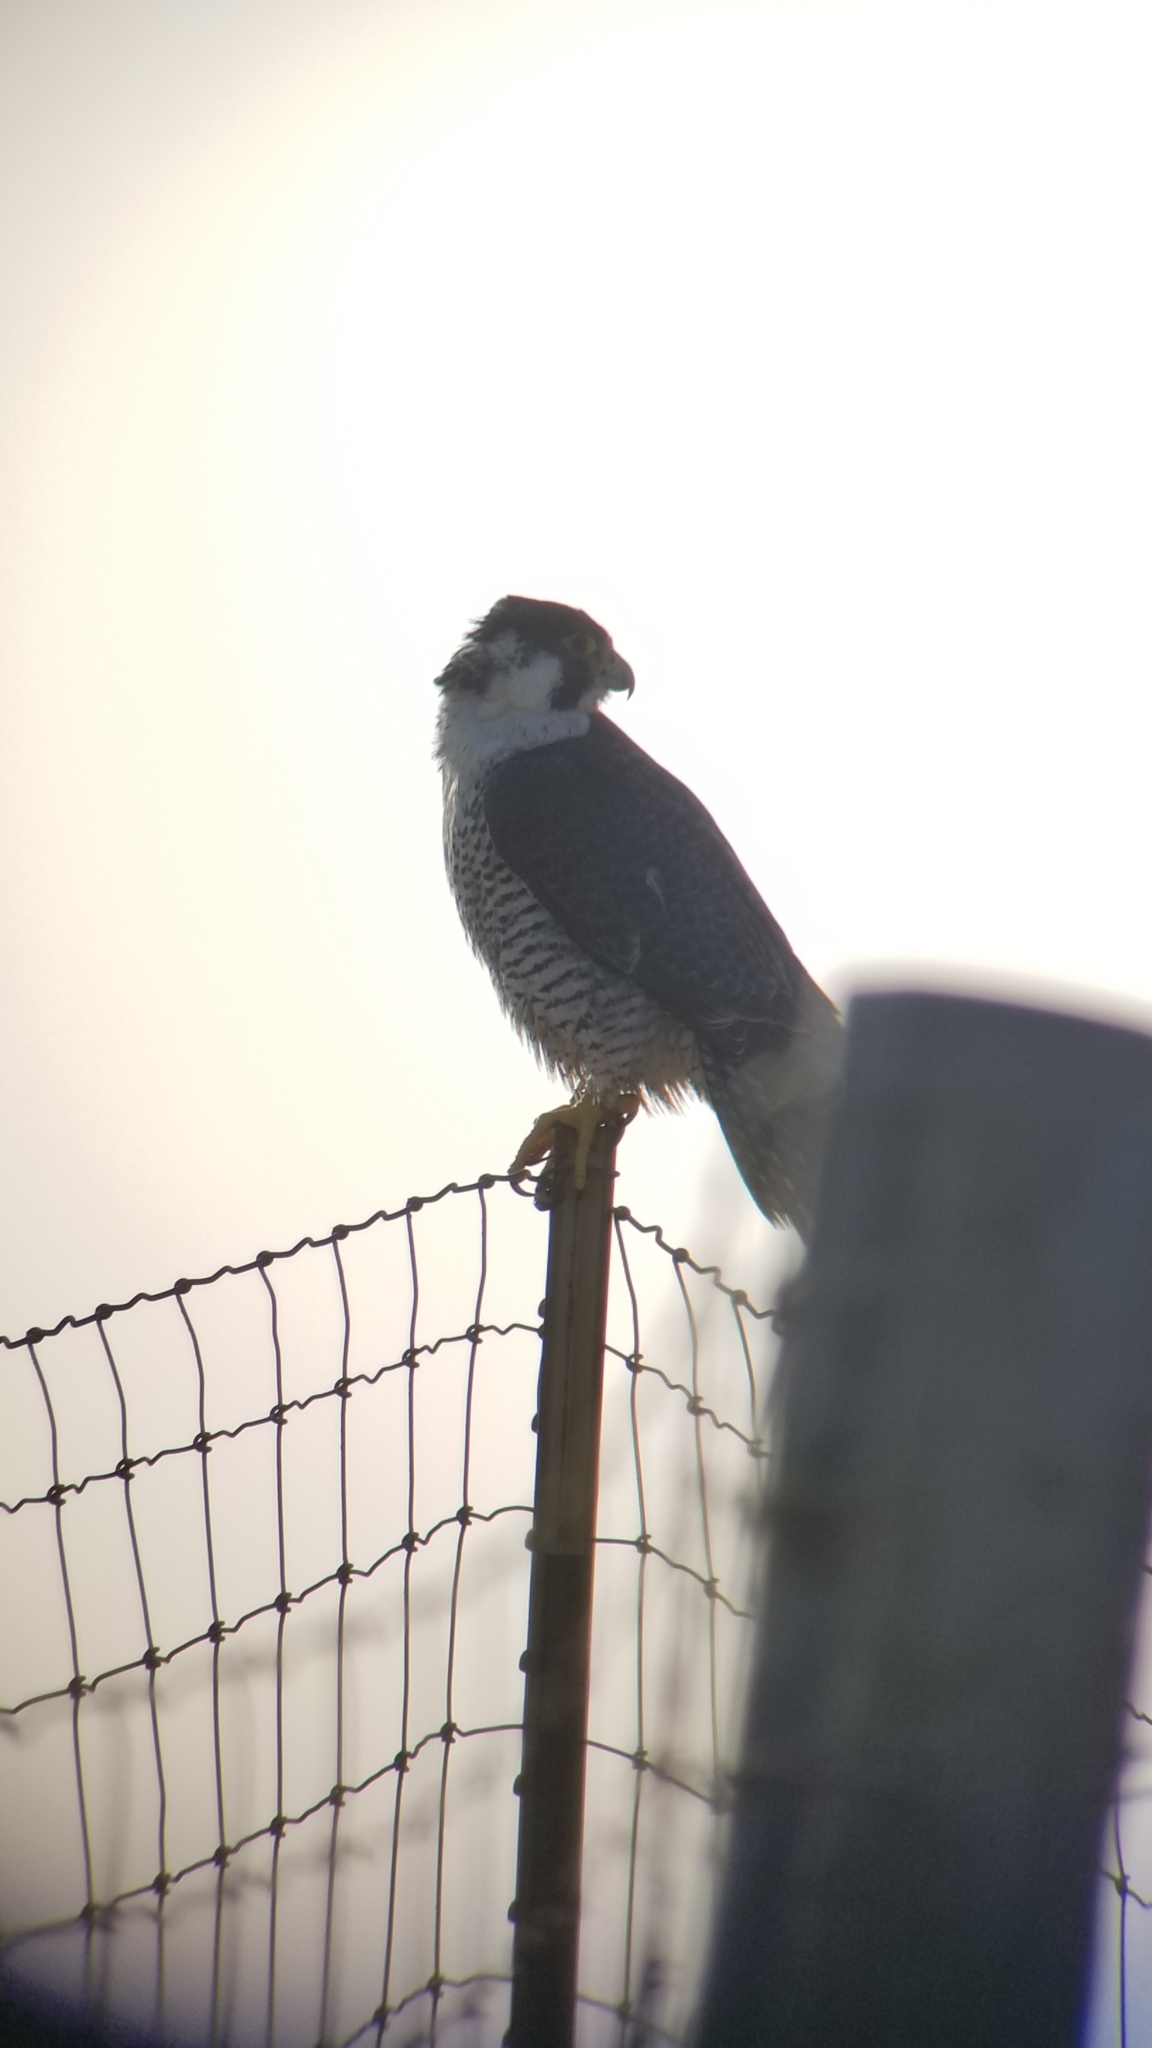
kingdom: Animalia
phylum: Chordata
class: Aves
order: Falconiformes
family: Falconidae
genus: Falco
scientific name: Falco peregrinus
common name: Peregrine falcon
